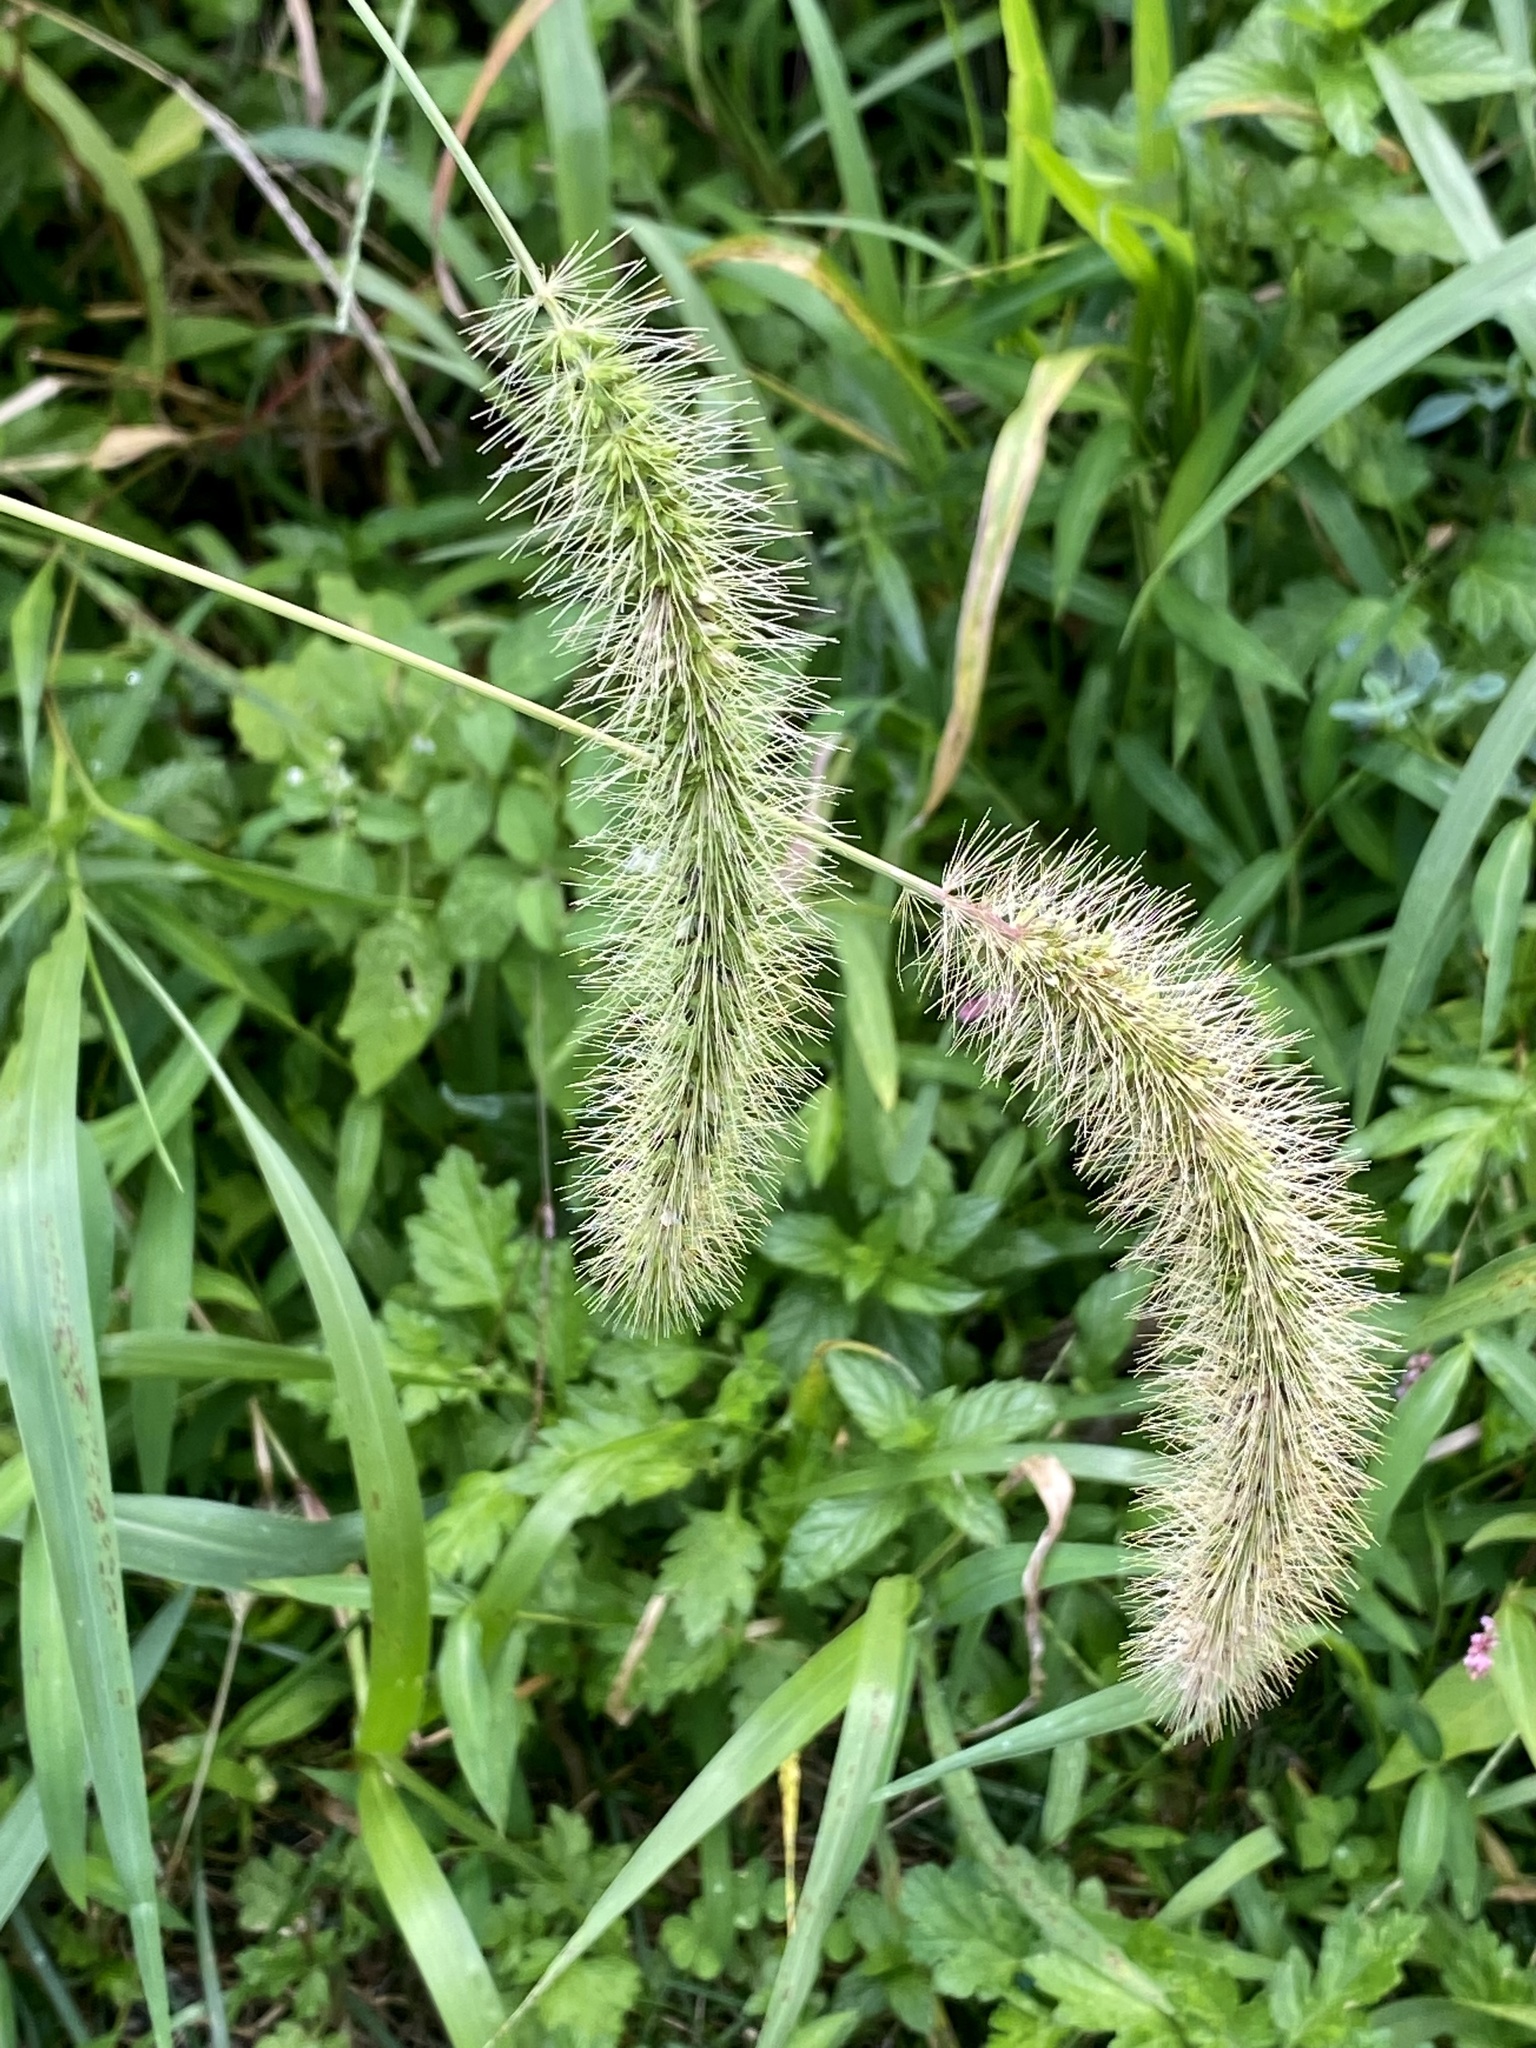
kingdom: Plantae
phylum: Tracheophyta
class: Liliopsida
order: Poales
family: Poaceae
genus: Setaria
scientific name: Setaria faberi
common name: Nodding bristle-grass
